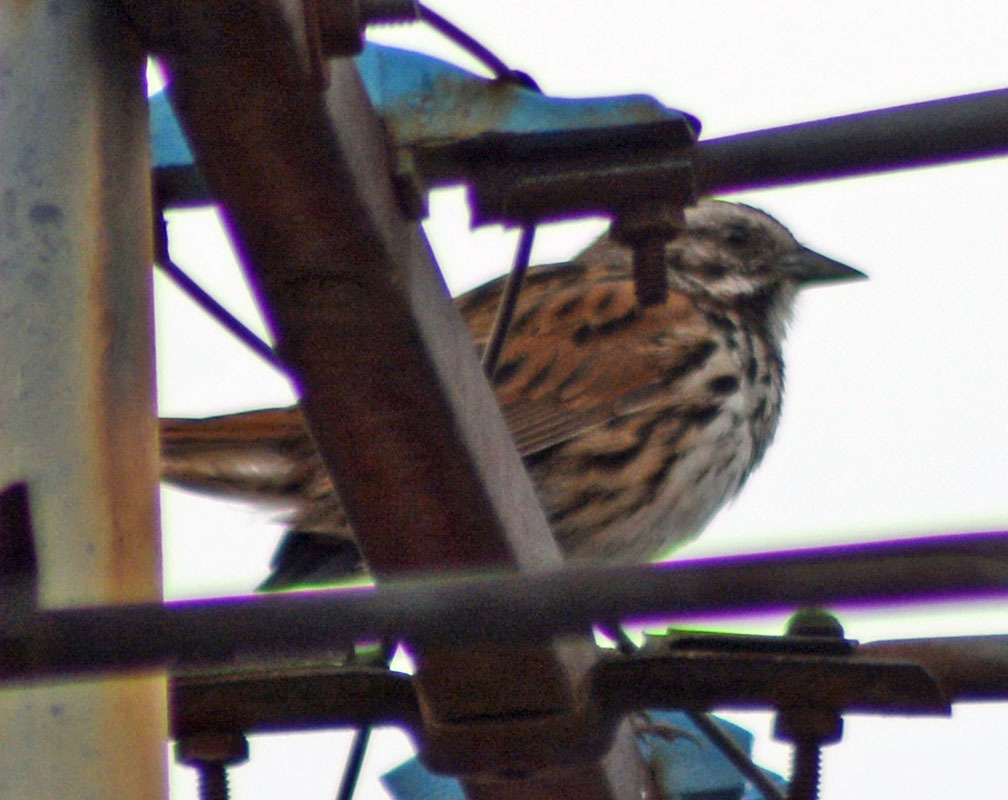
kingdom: Animalia
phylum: Chordata
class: Aves
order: Passeriformes
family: Passerellidae
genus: Melospiza
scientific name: Melospiza melodia
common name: Song sparrow
